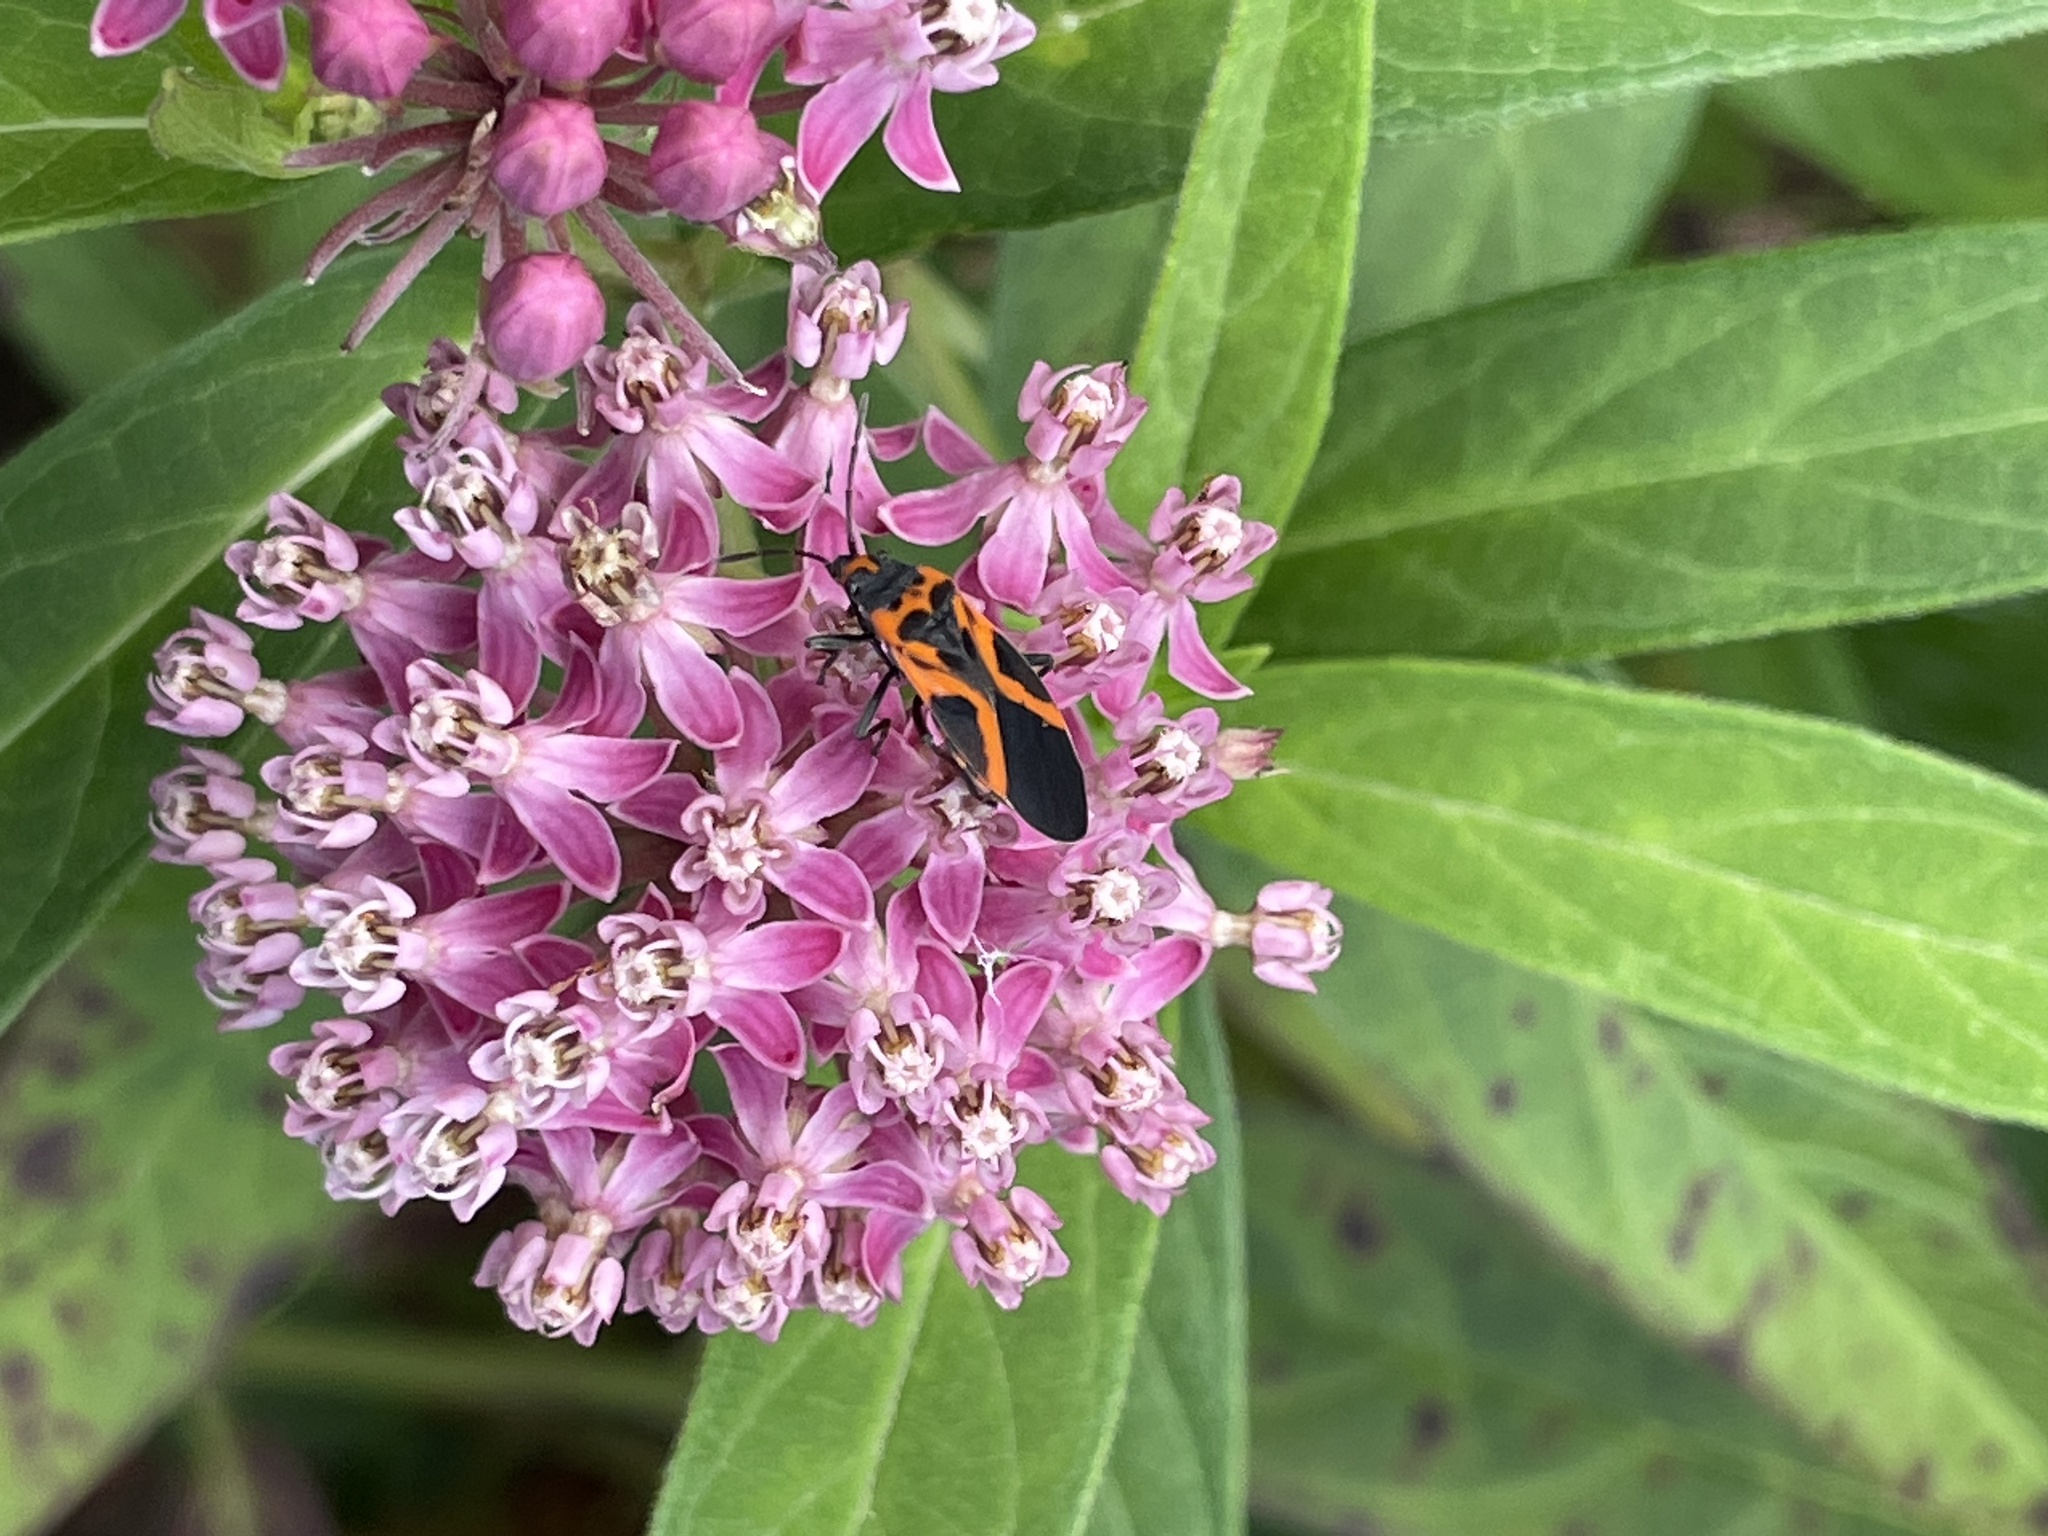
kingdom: Animalia
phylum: Arthropoda
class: Insecta
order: Hemiptera
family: Lygaeidae
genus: Lygaeus
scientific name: Lygaeus turcicus
